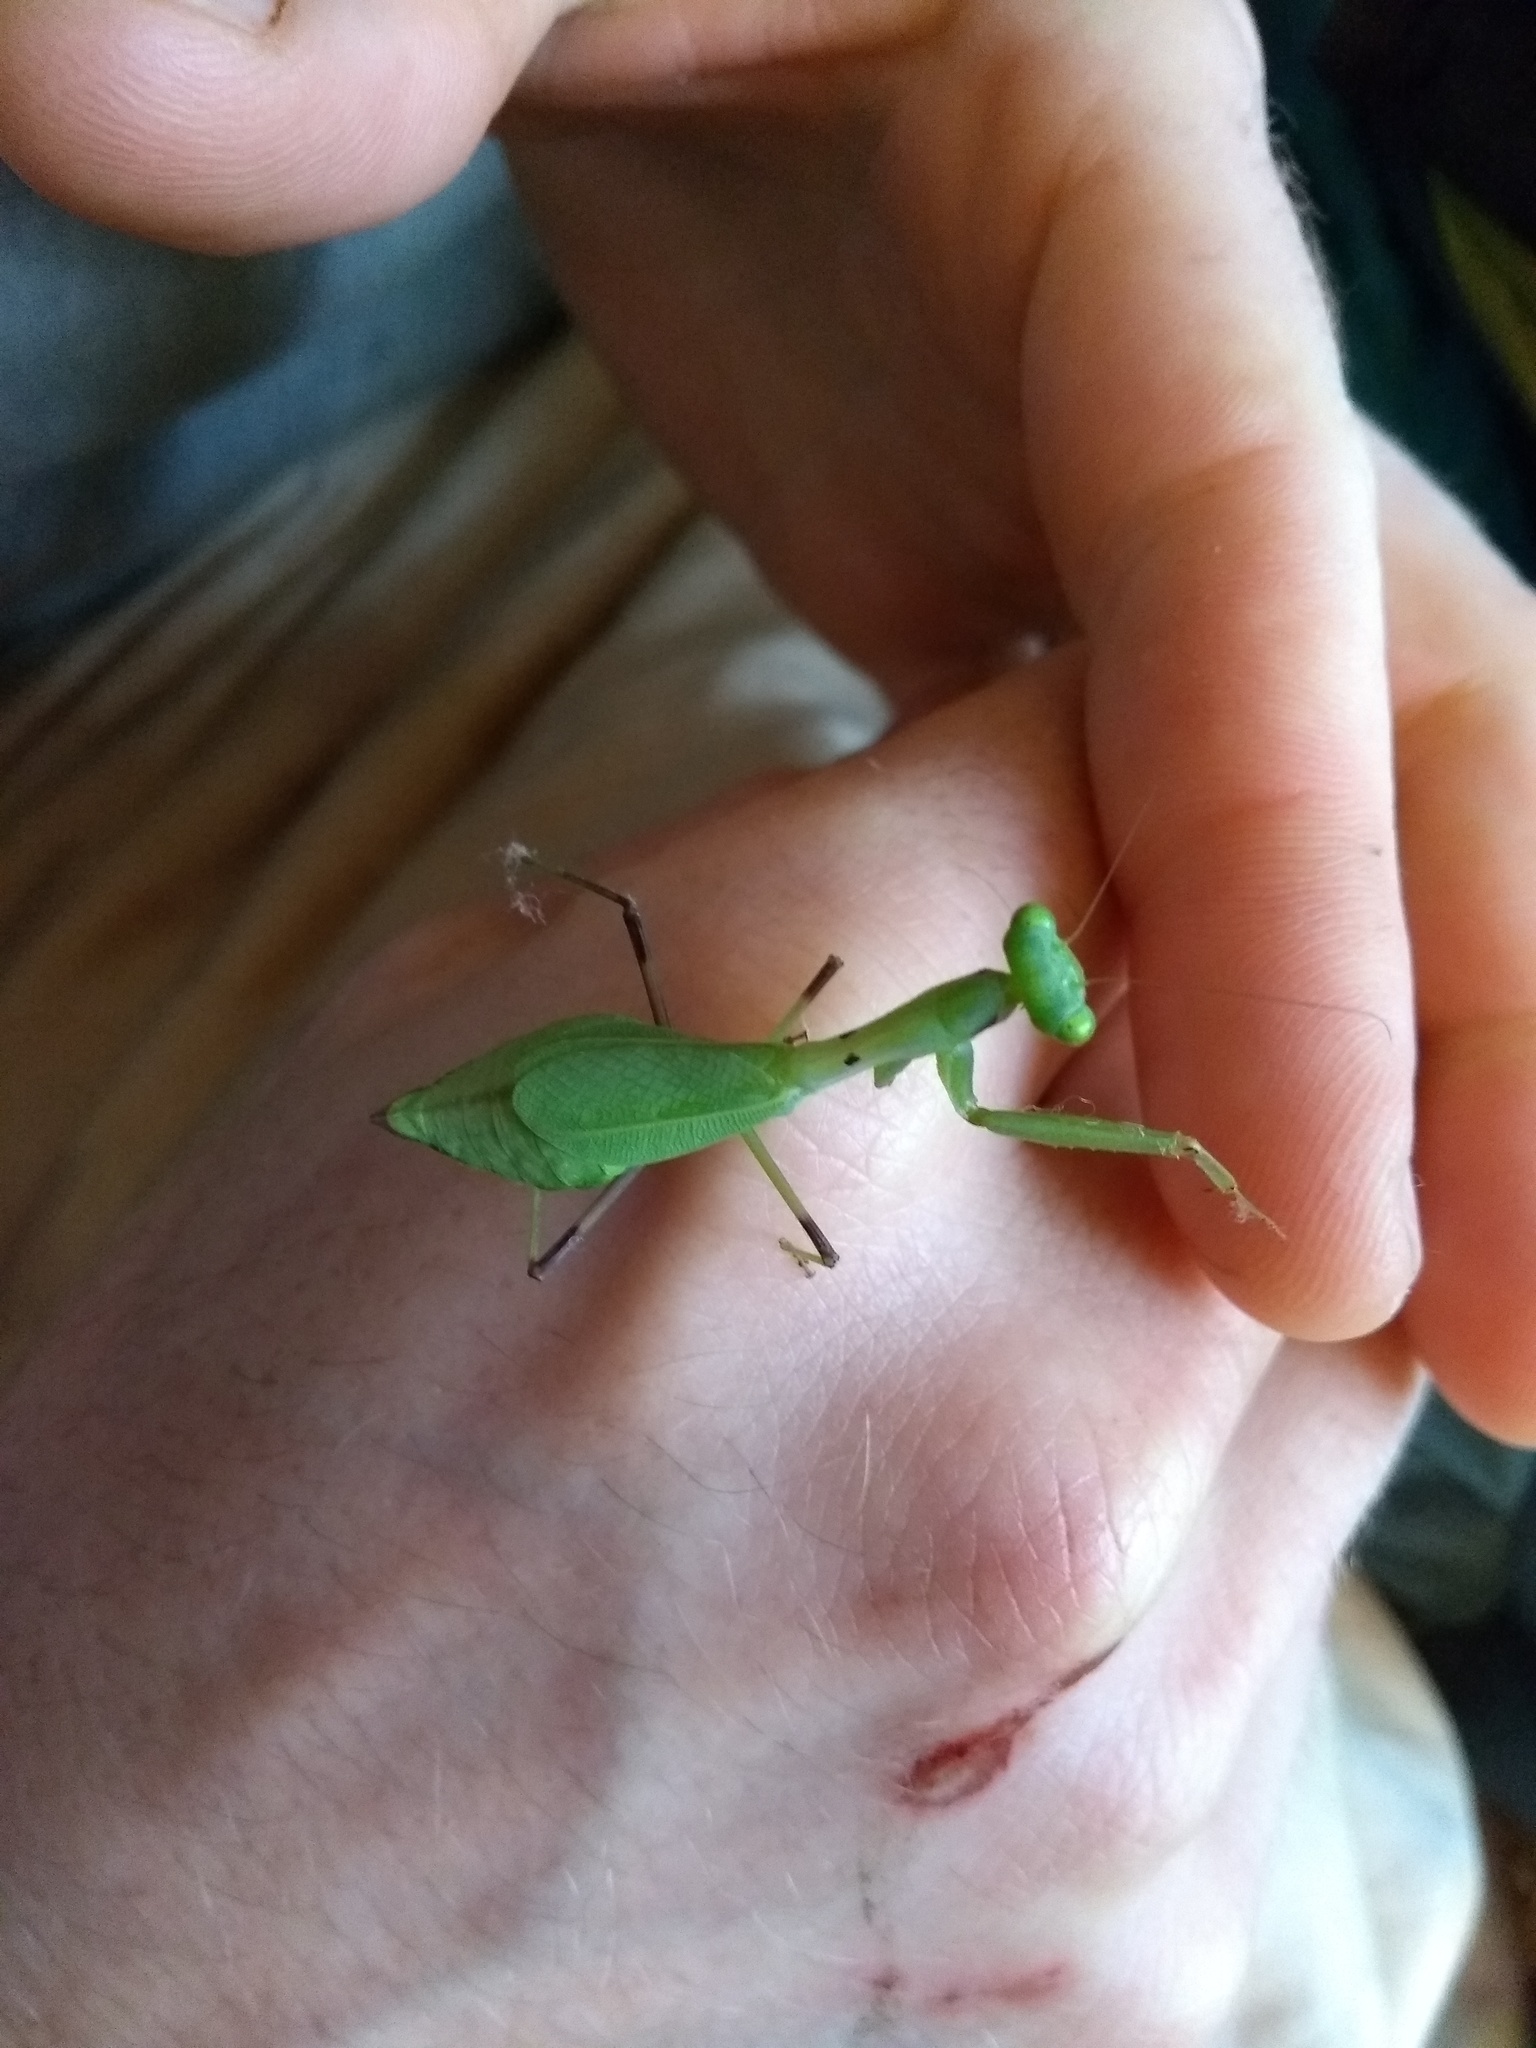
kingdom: Animalia
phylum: Arthropoda
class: Insecta
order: Mantodea
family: Photinaidae
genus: Photina
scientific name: Photina
